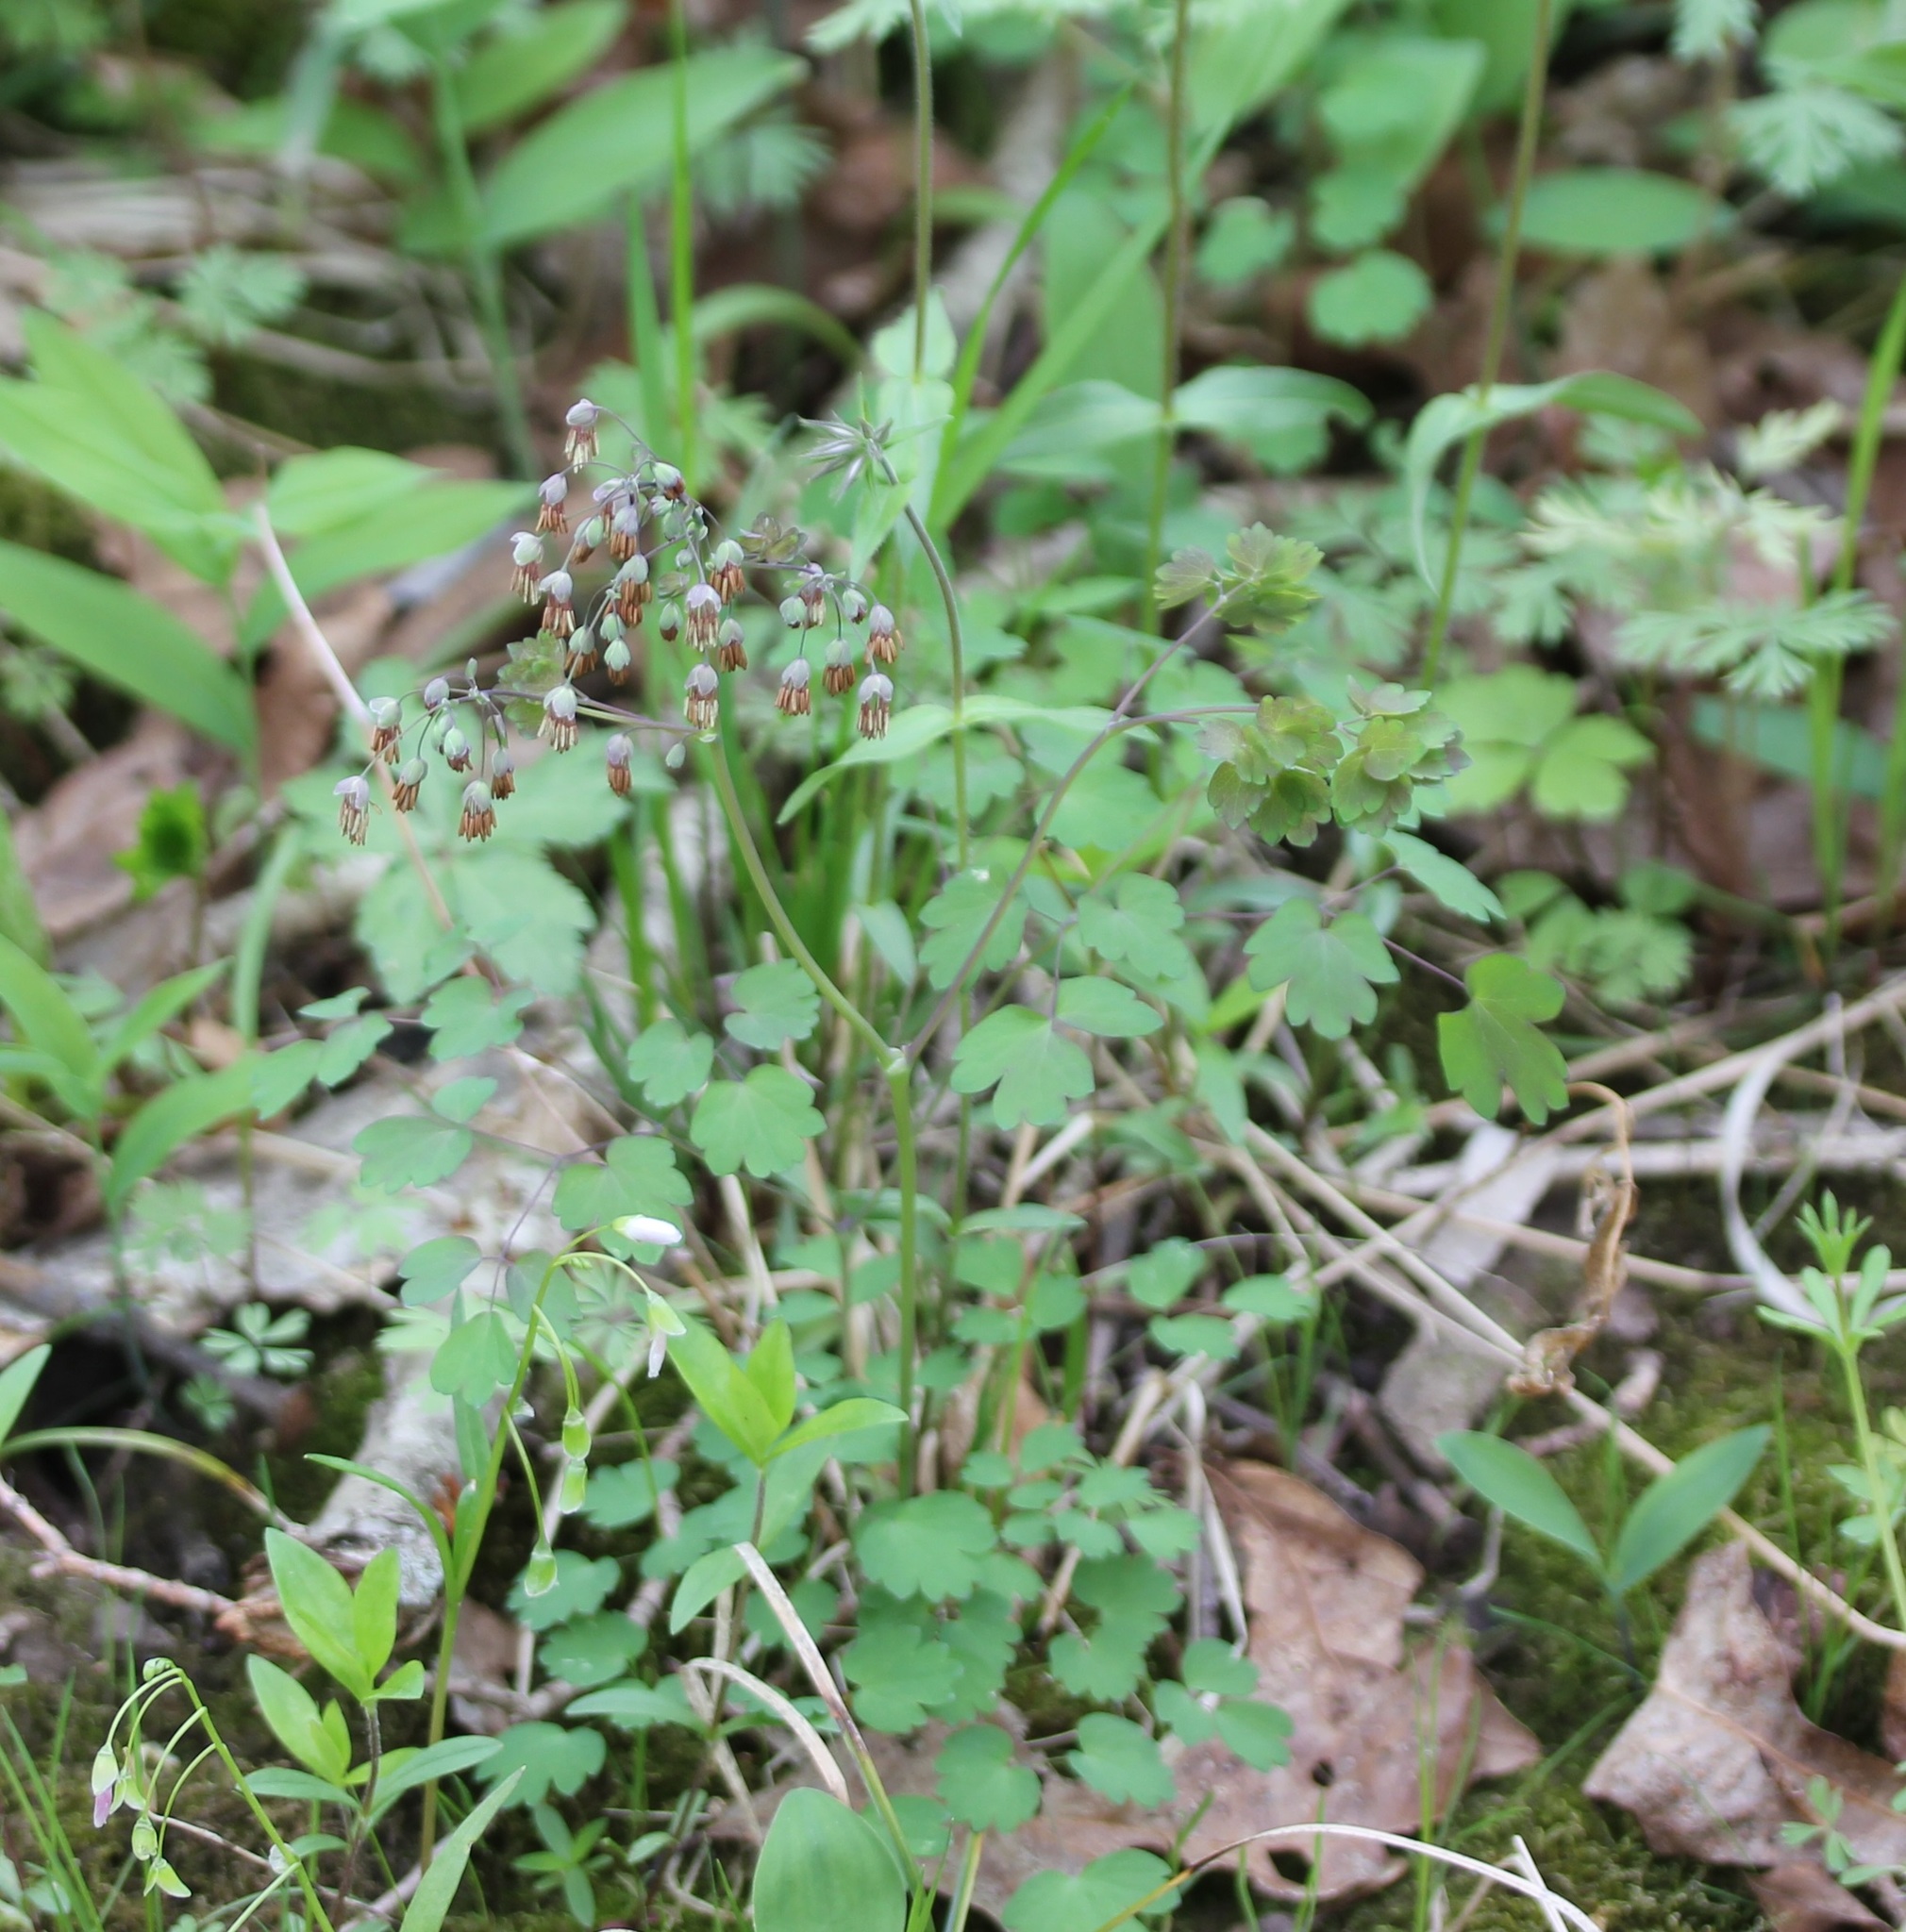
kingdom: Plantae
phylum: Tracheophyta
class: Magnoliopsida
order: Ranunculales
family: Ranunculaceae
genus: Thalictrum
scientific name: Thalictrum dioicum
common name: Early meadow-rue
